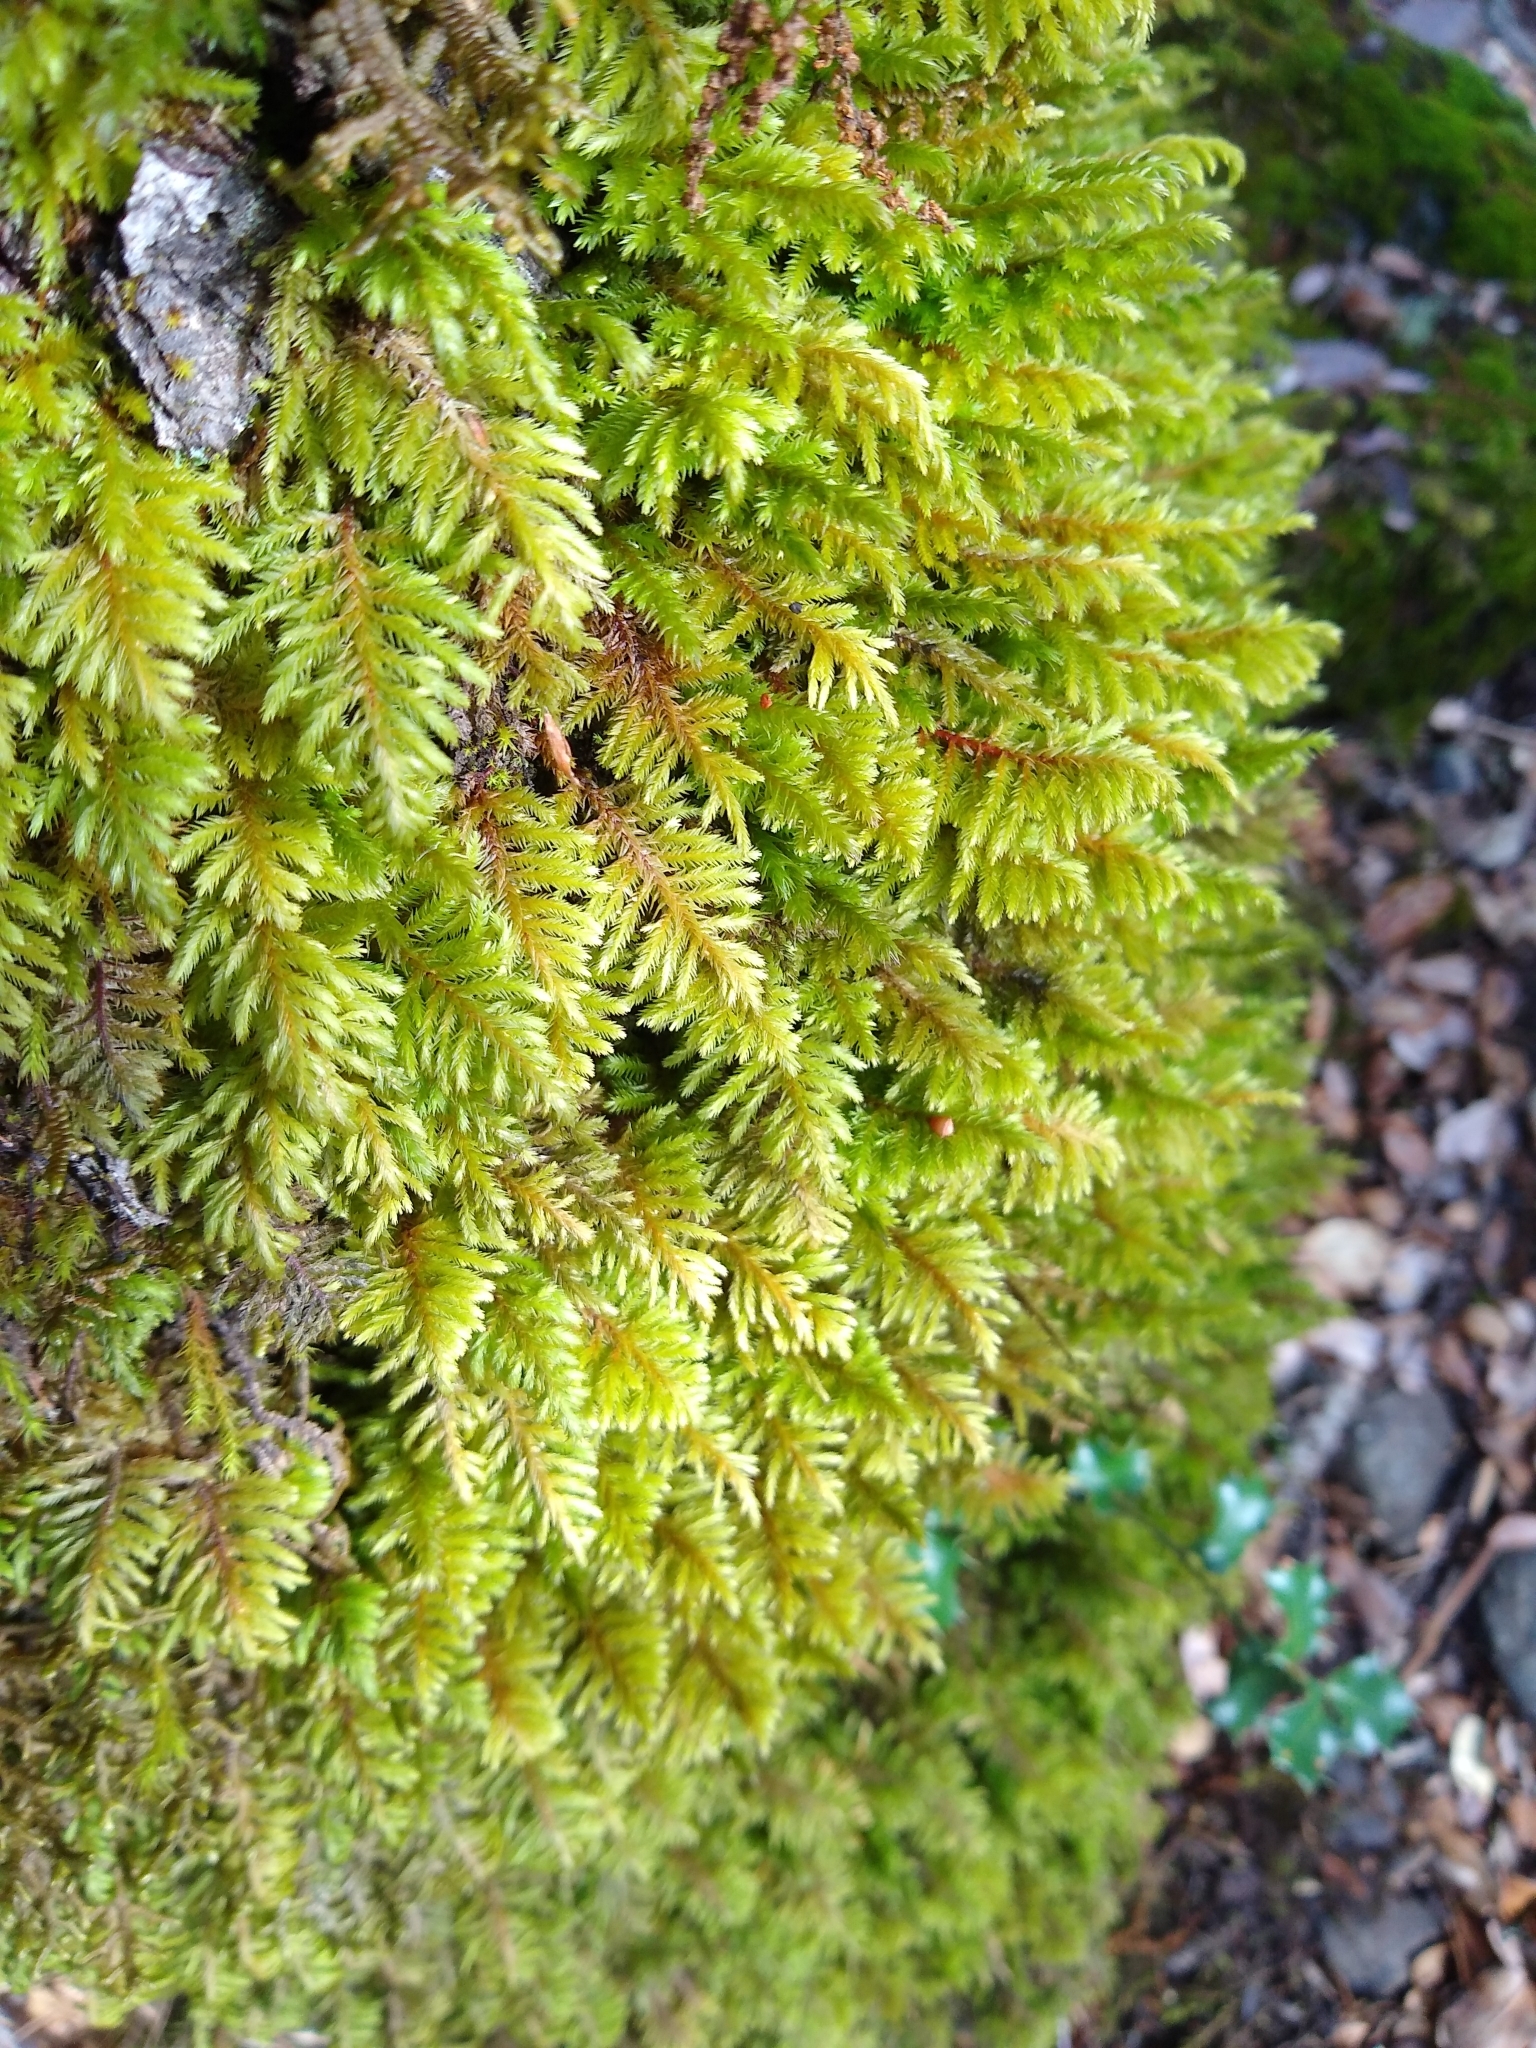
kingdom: Plantae
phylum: Bryophyta
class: Bryopsida
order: Hypnales
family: Cryphaeaceae
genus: Dendroalsia
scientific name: Dendroalsia abietina
